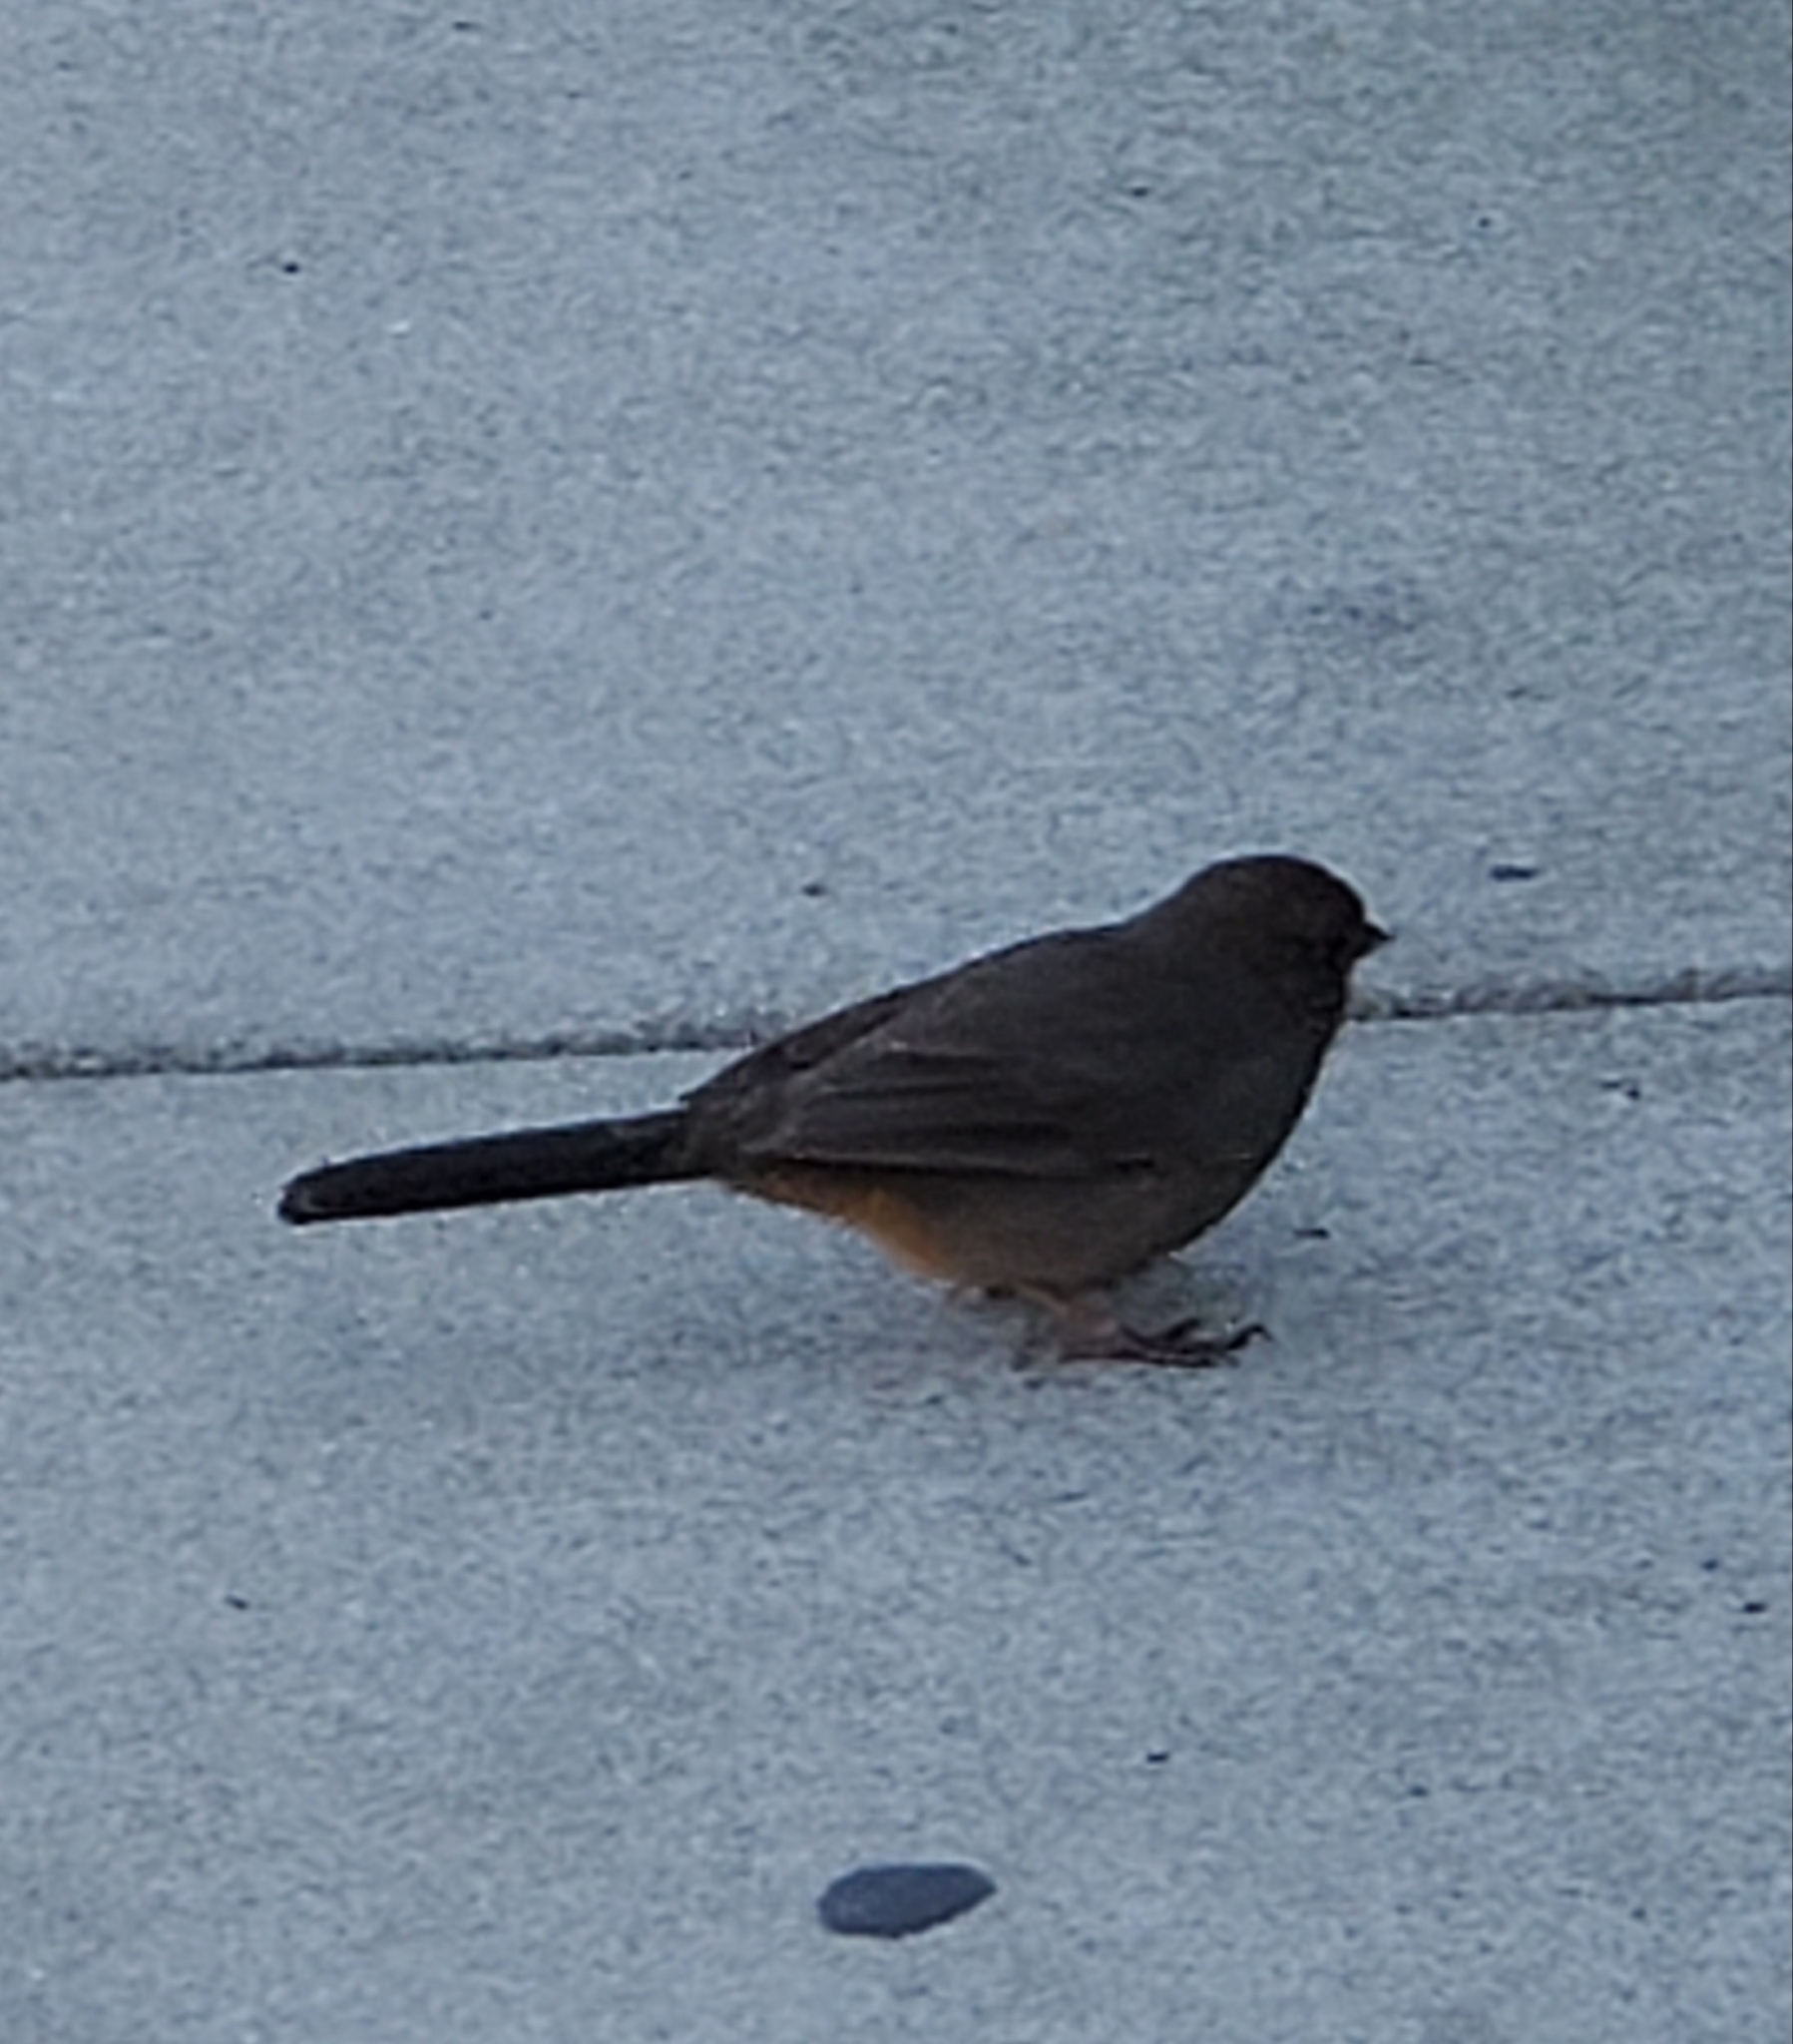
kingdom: Animalia
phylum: Chordata
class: Aves
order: Passeriformes
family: Passerellidae
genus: Melozone
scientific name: Melozone crissalis
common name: California towhee
